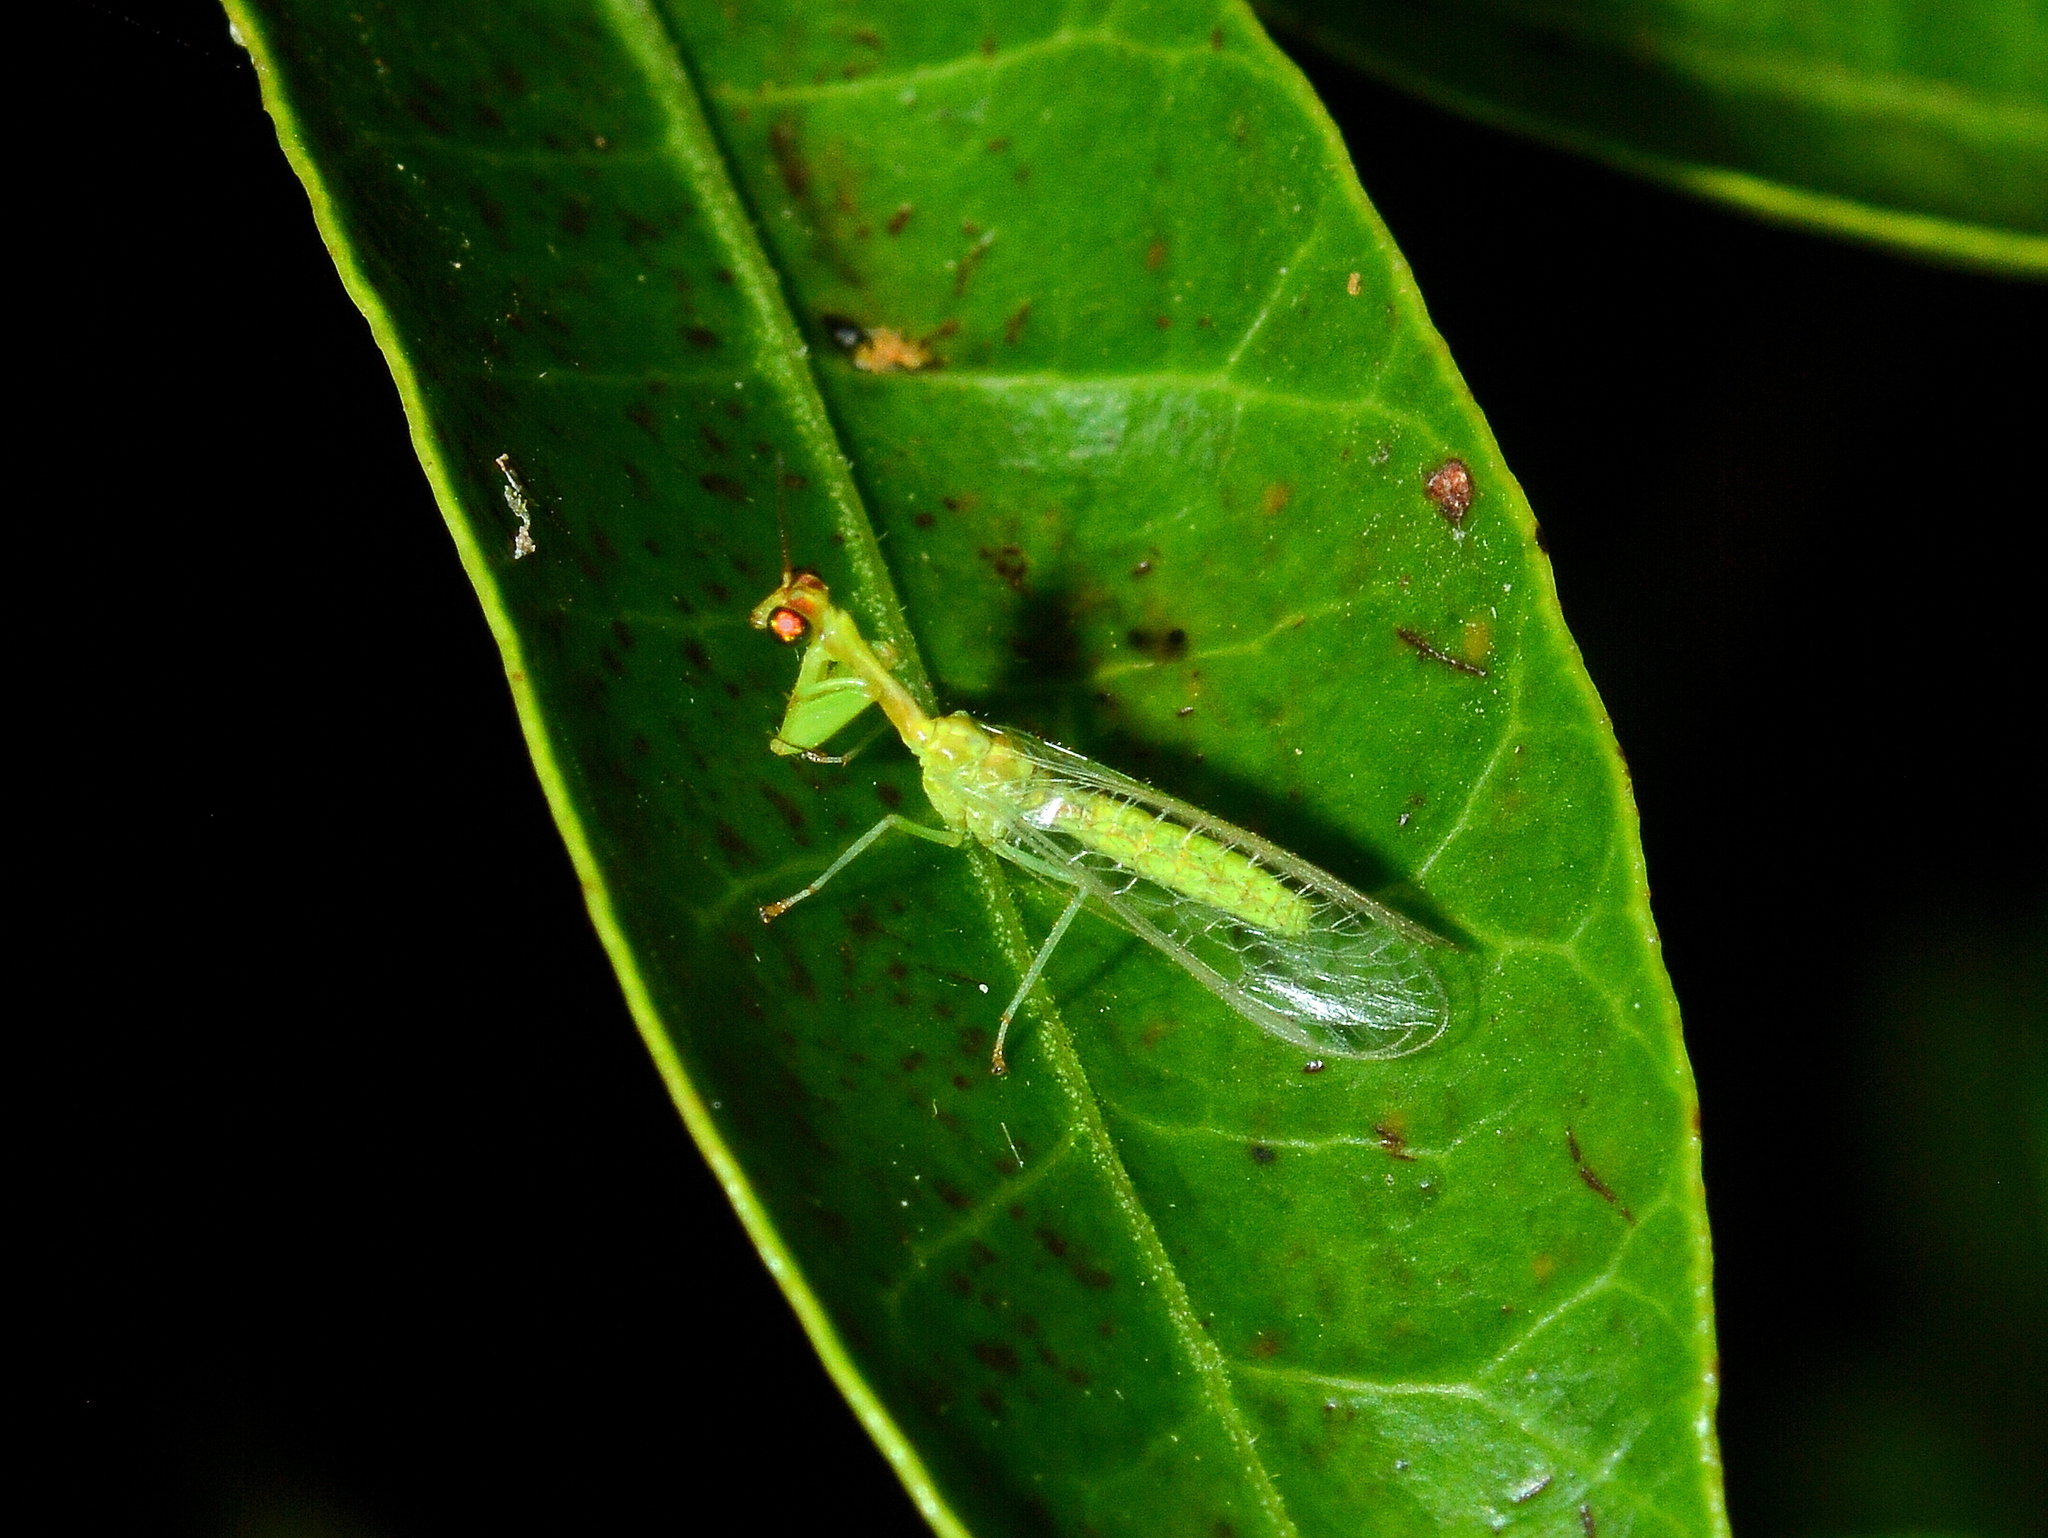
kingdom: Animalia
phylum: Arthropoda
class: Insecta
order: Neuroptera
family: Mantispidae
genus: Zeugomantispa
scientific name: Zeugomantispa virescens
